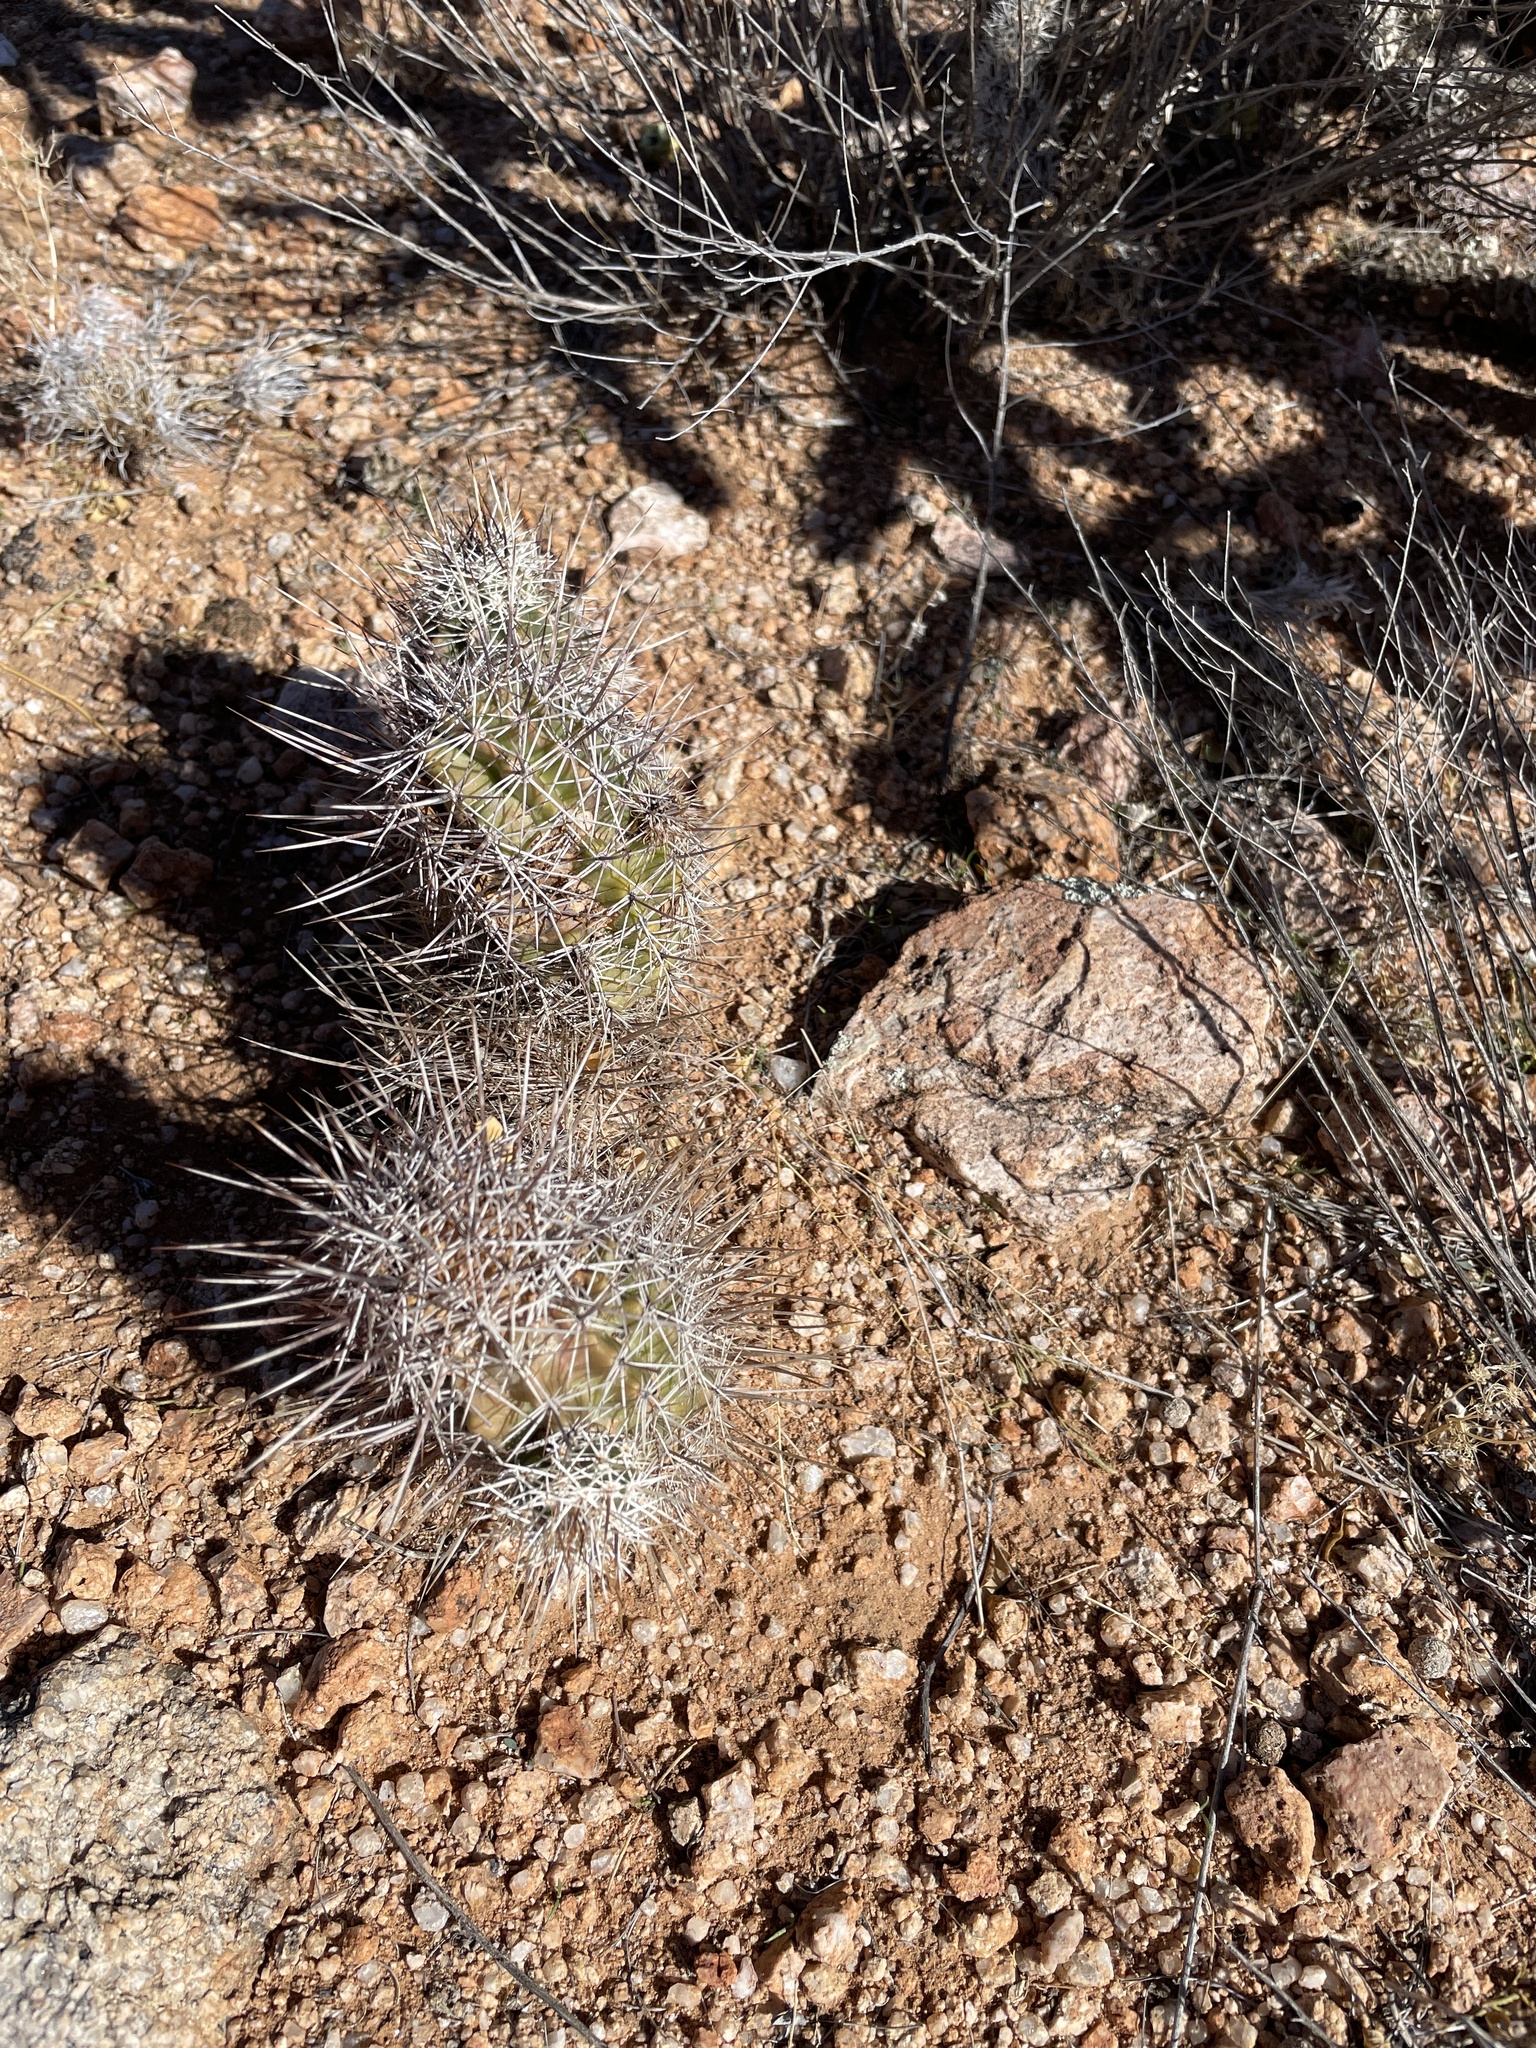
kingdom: Plantae
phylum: Tracheophyta
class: Magnoliopsida
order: Caryophyllales
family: Cactaceae
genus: Echinocereus
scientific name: Echinocereus fendleri
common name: Fendler's hedgehog cactus
